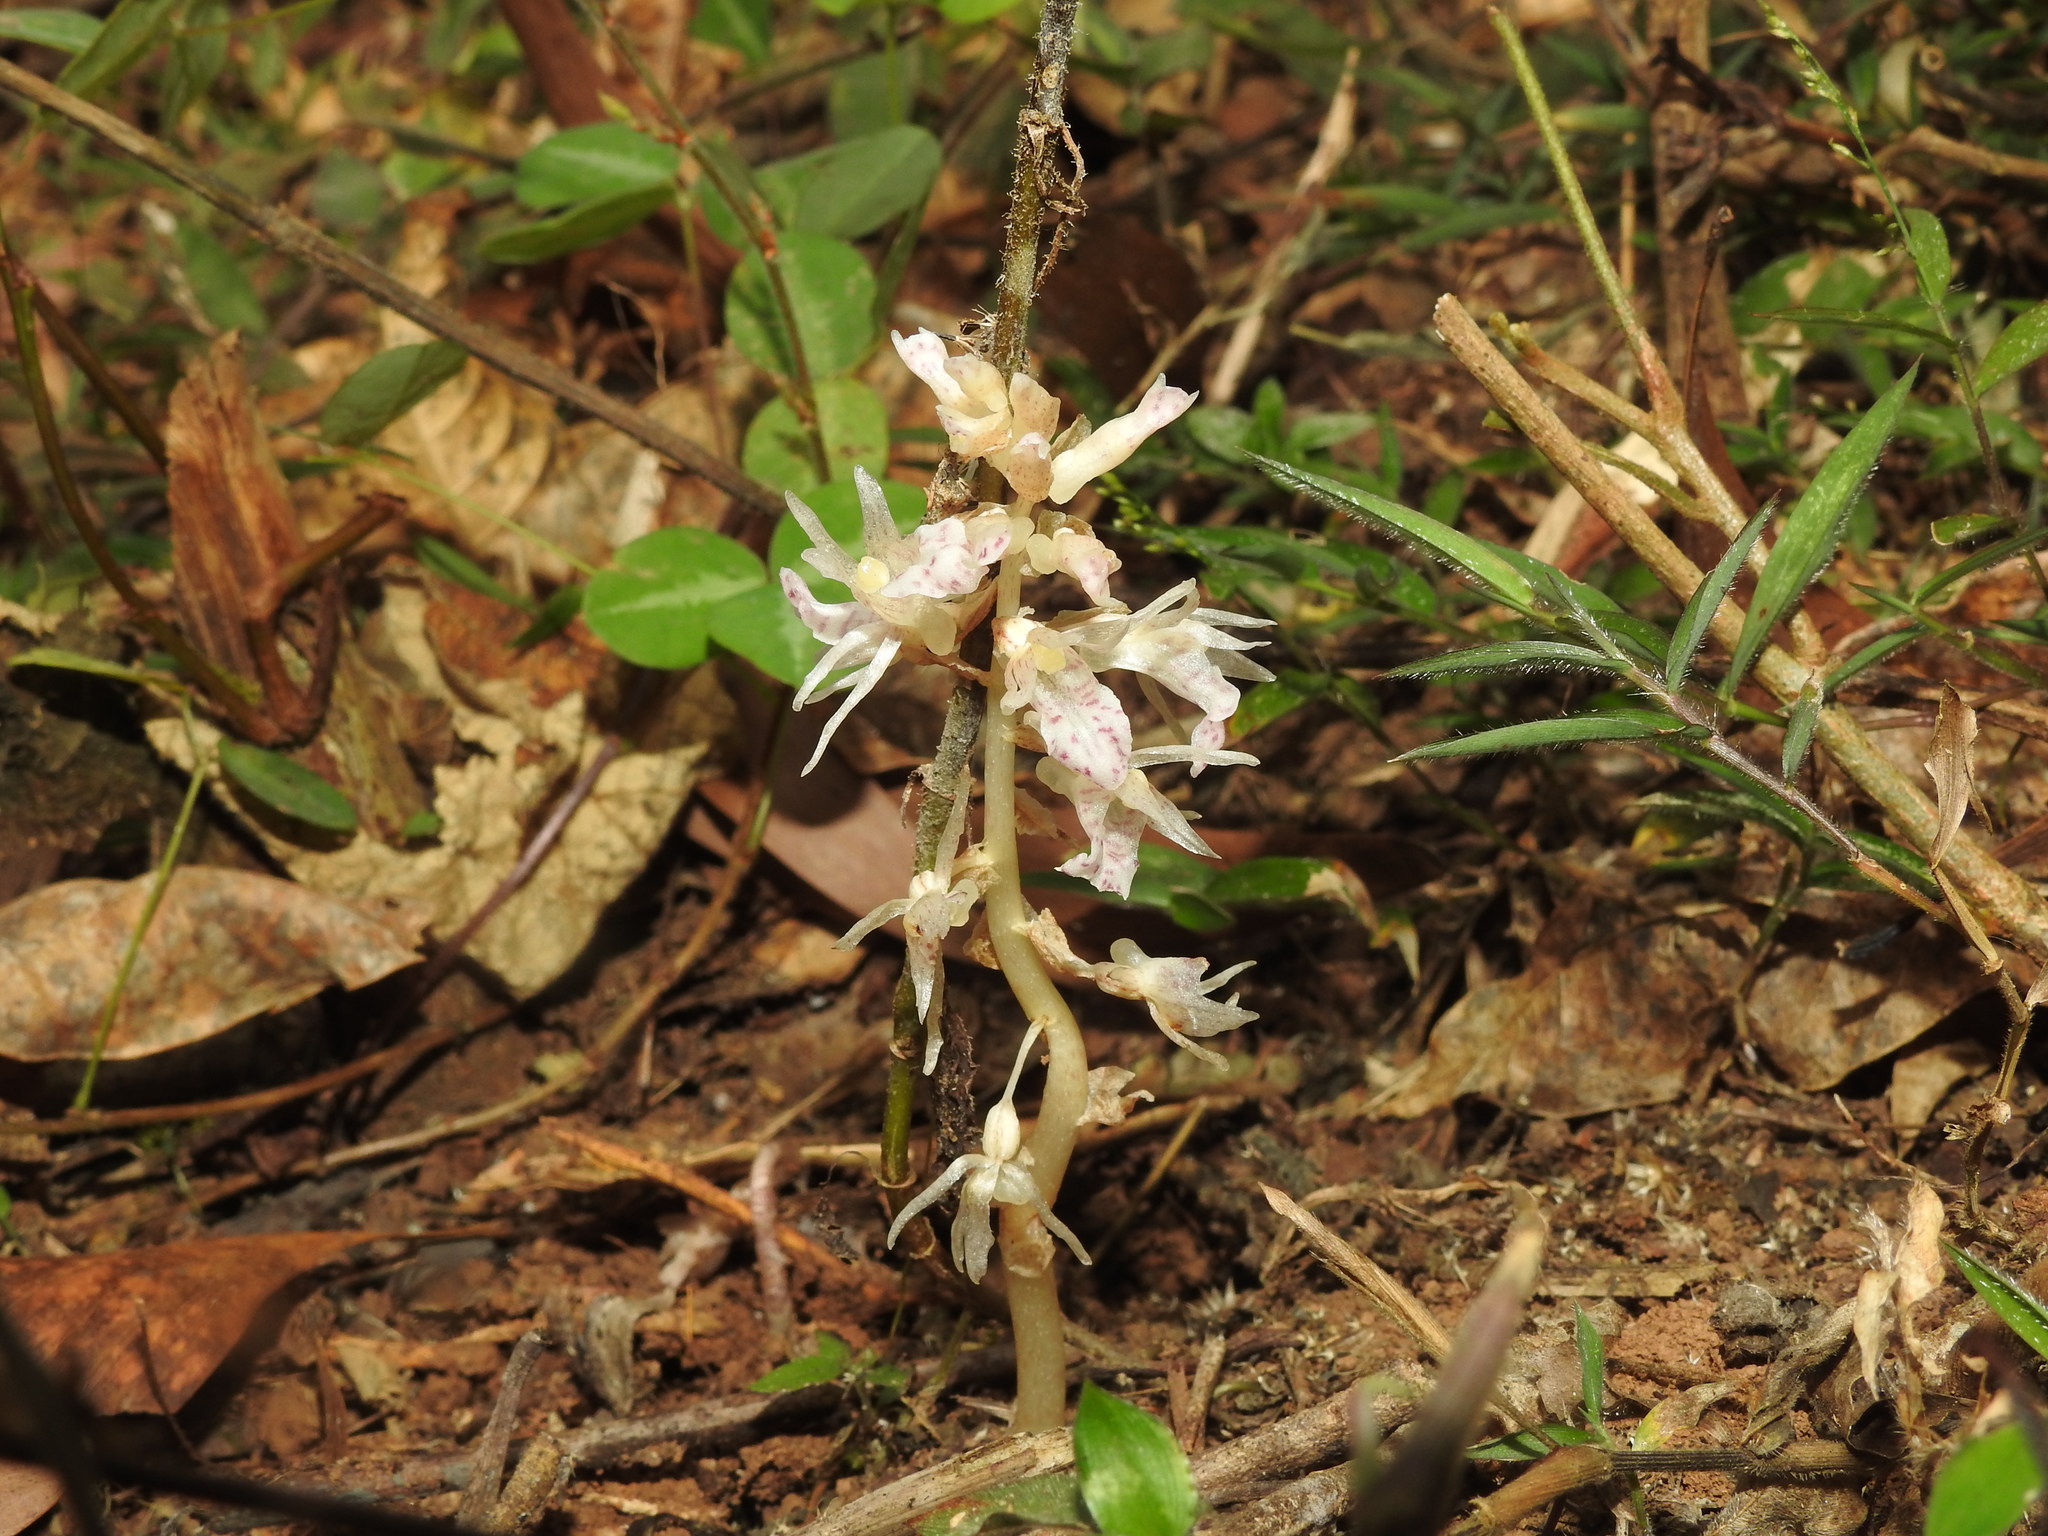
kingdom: Plantae
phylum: Tracheophyta
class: Liliopsida
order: Asparagales
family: Orchidaceae
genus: Epipogium
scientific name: Epipogium roseum
